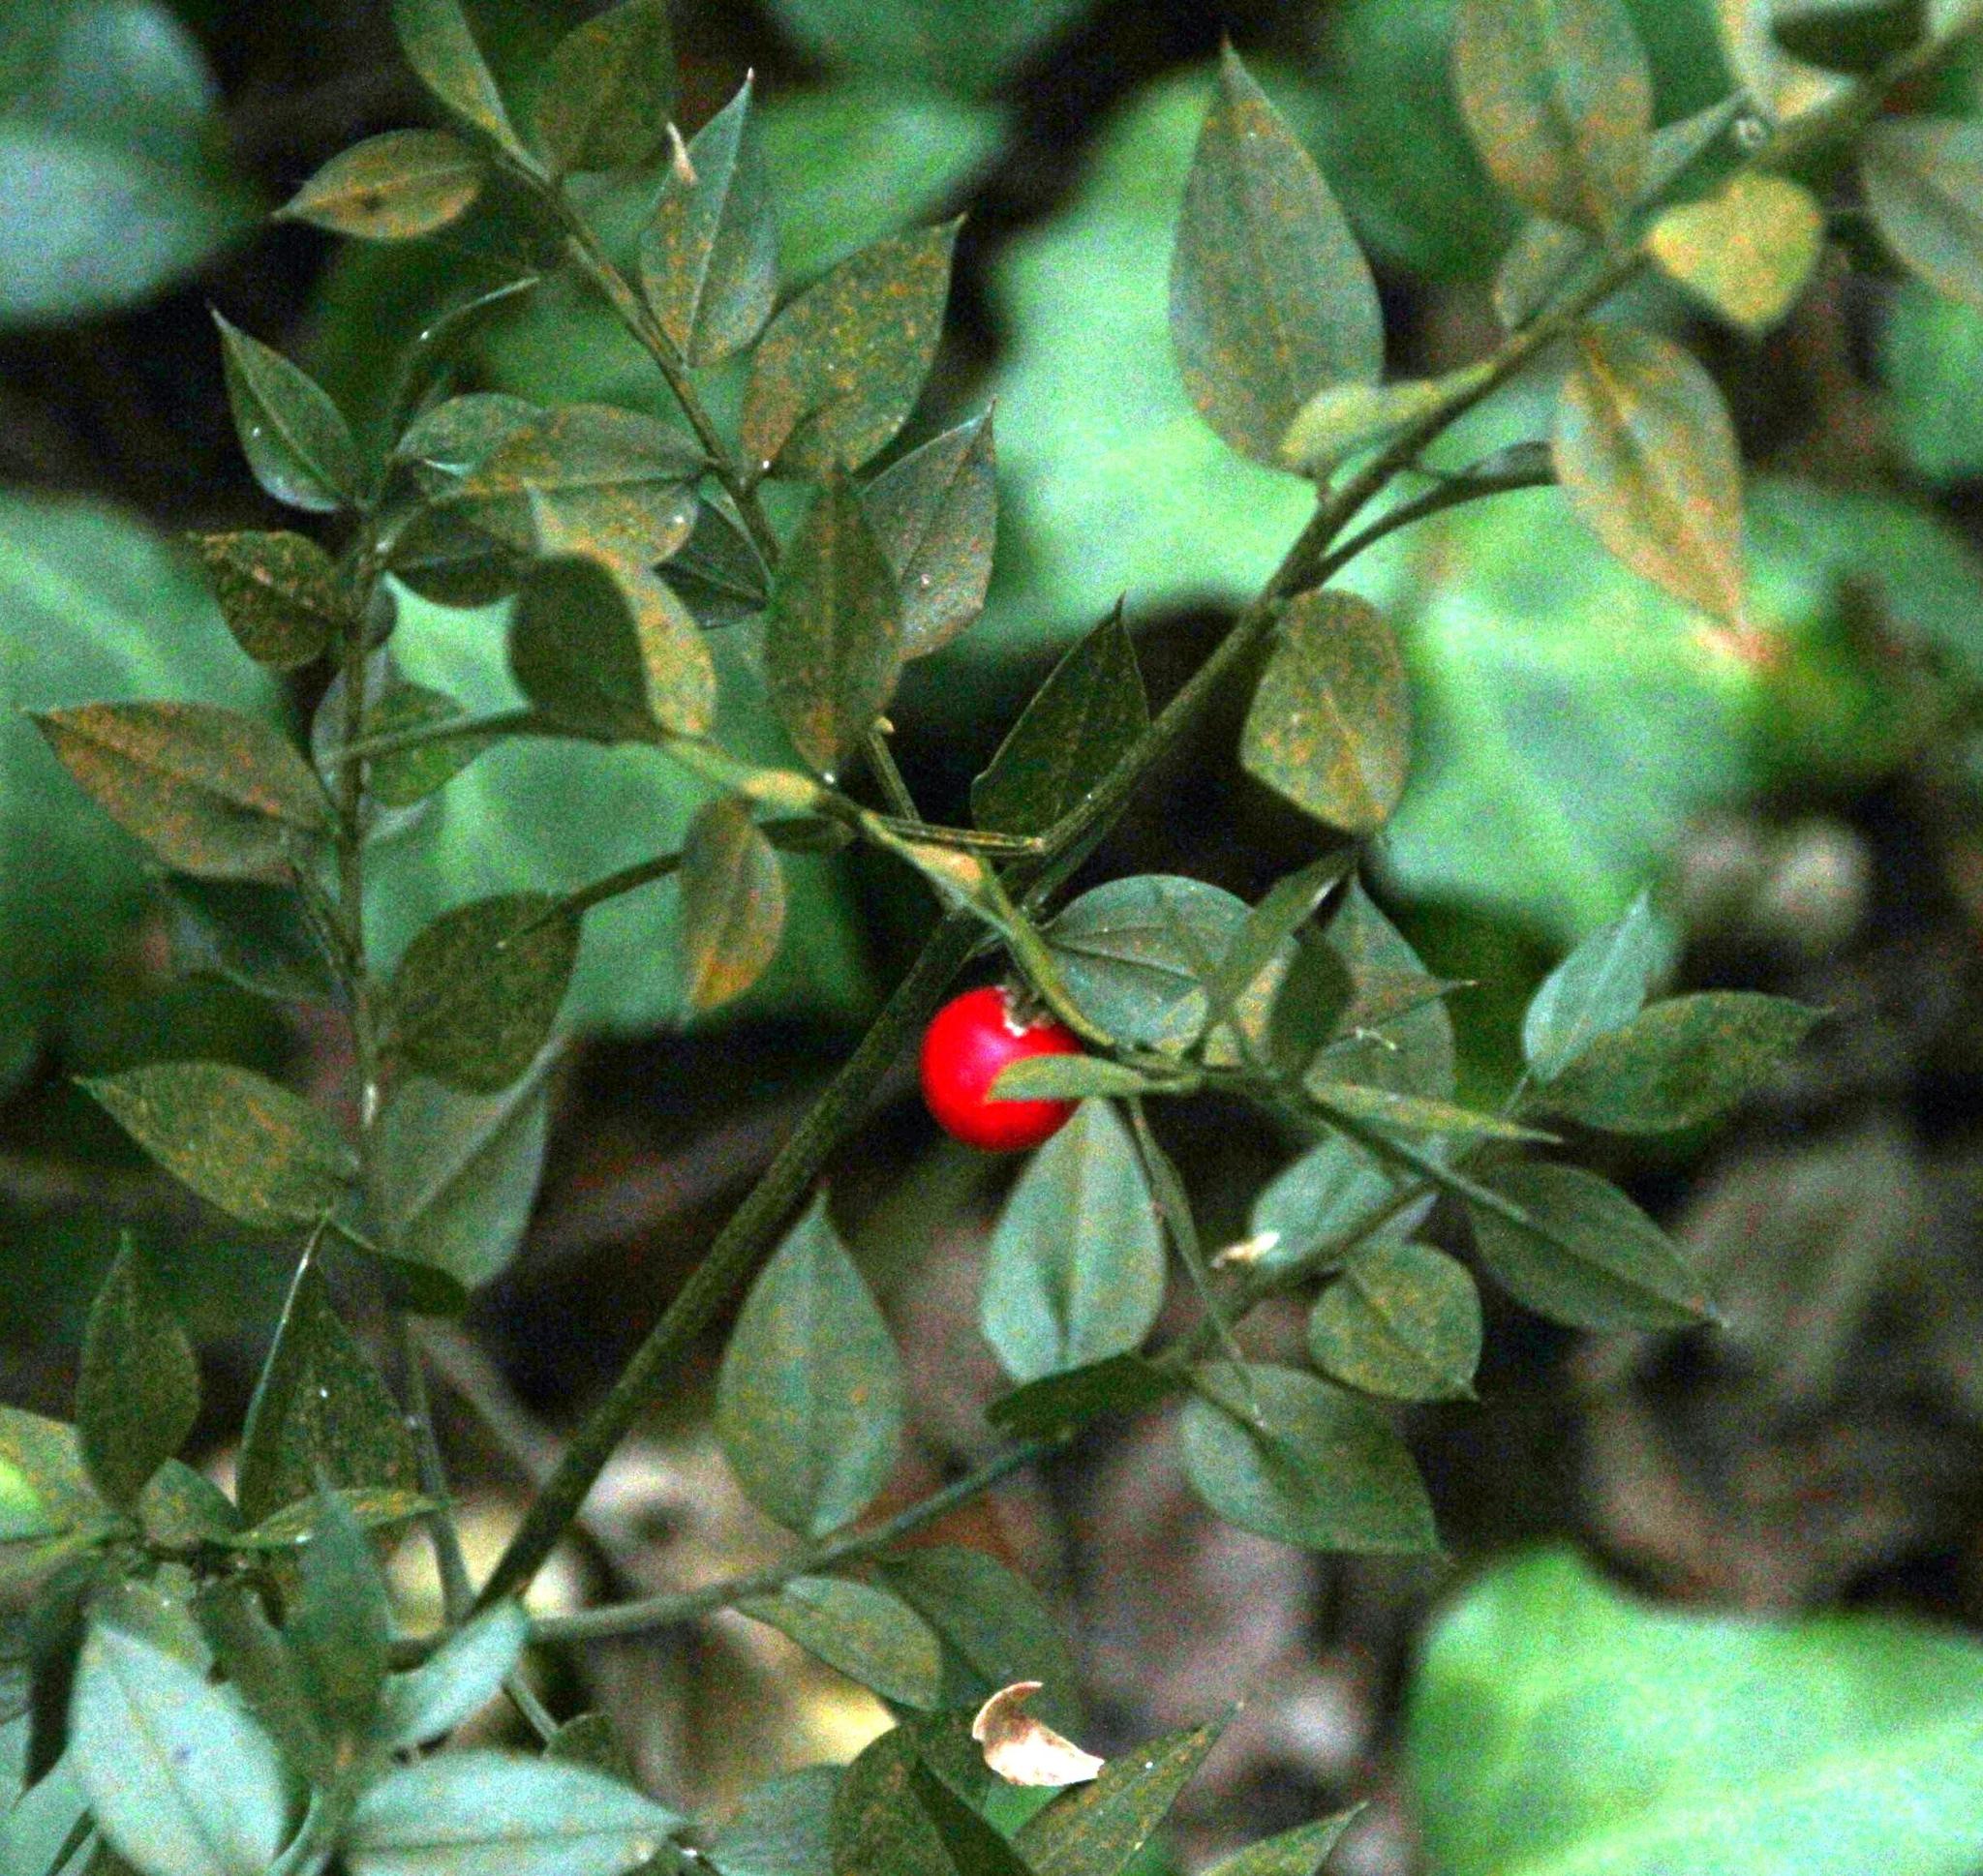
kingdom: Plantae
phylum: Tracheophyta
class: Liliopsida
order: Asparagales
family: Asparagaceae
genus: Ruscus
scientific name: Ruscus aculeatus
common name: Butcher's-broom
